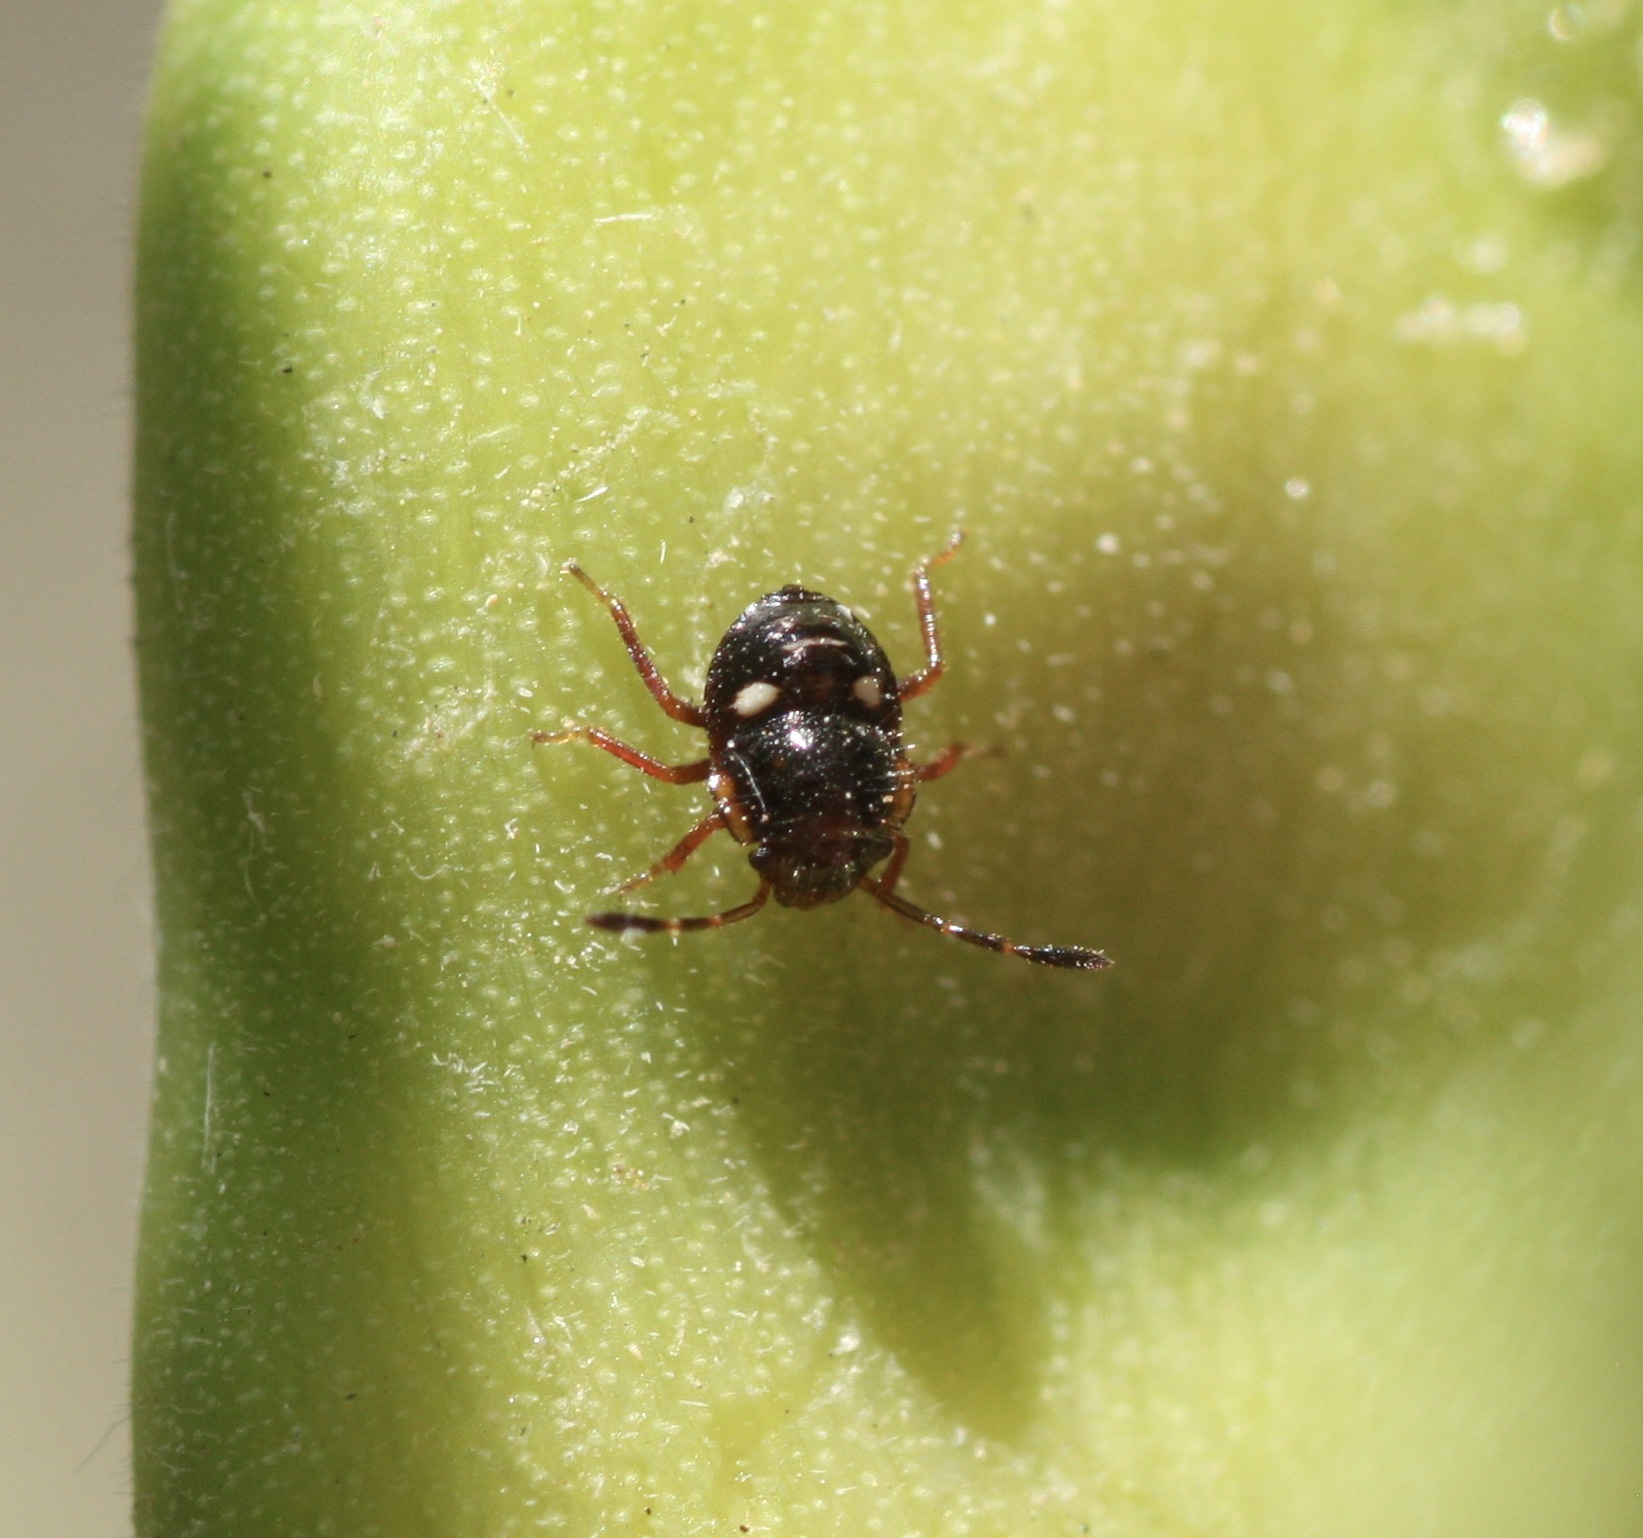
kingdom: Animalia
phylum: Arthropoda
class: Insecta
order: Hemiptera
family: Pentatomidae
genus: Thyanta
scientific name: Thyanta accerra
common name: Stink bug
